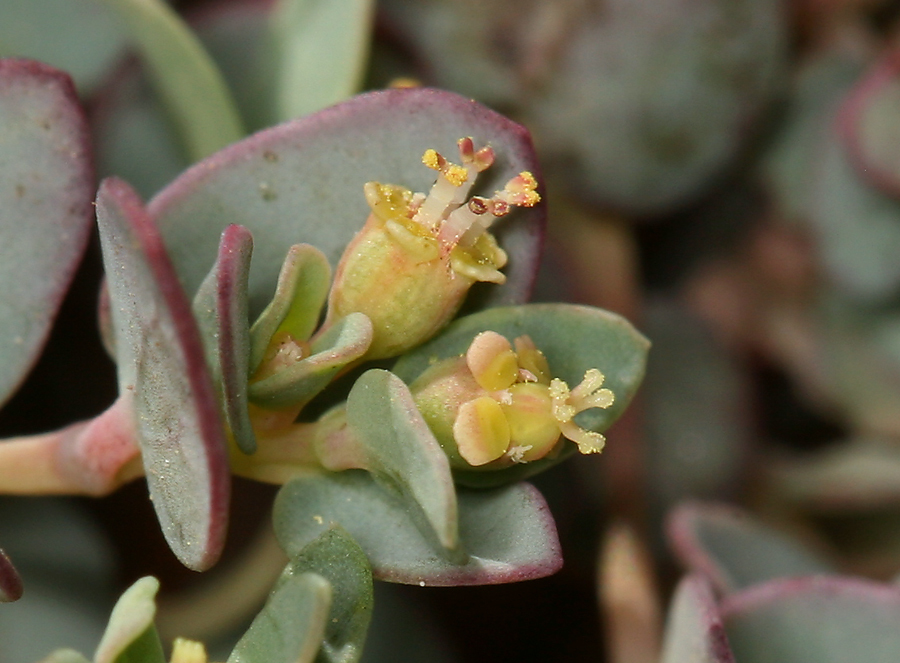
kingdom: Plantae
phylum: Tracheophyta
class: Magnoliopsida
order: Malpighiales
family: Euphorbiaceae
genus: Euphorbia
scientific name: Euphorbia fendleri
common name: Fendler's euphorbia
